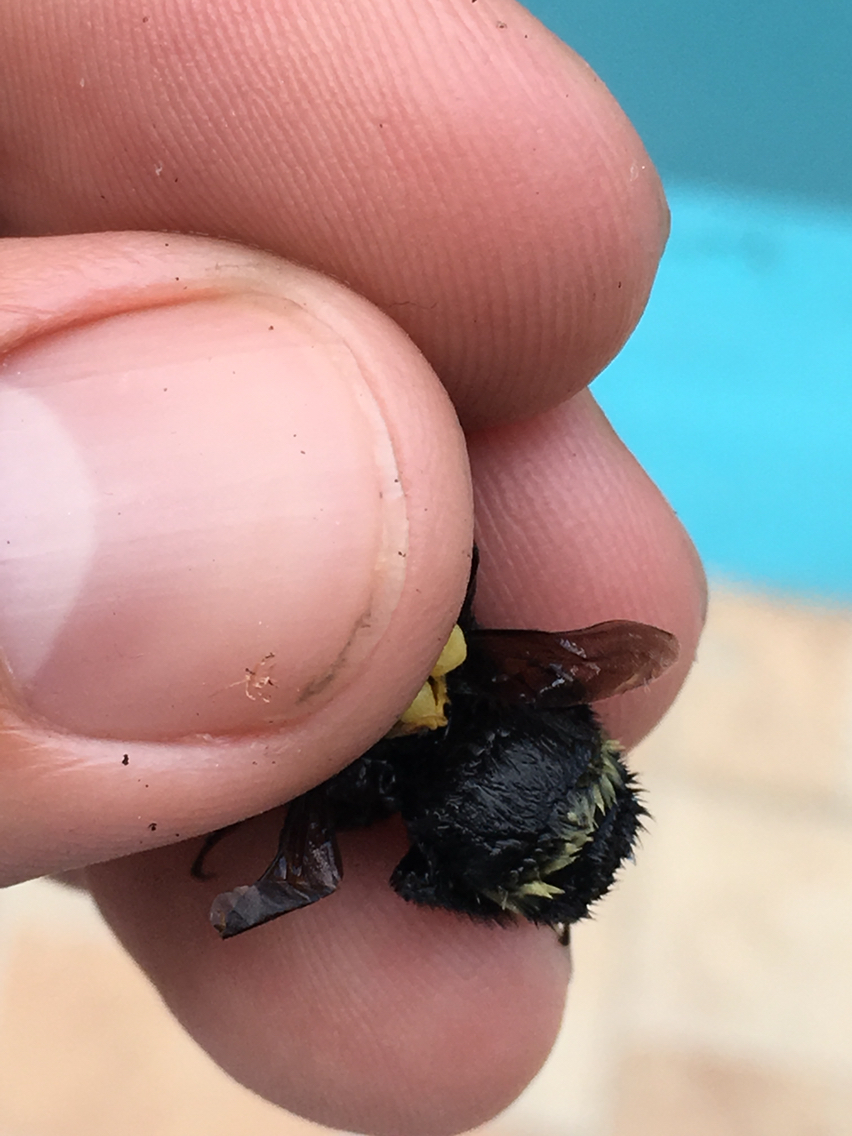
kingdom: Animalia
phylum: Arthropoda
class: Insecta
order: Hymenoptera
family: Apidae
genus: Bombus
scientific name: Bombus medius
